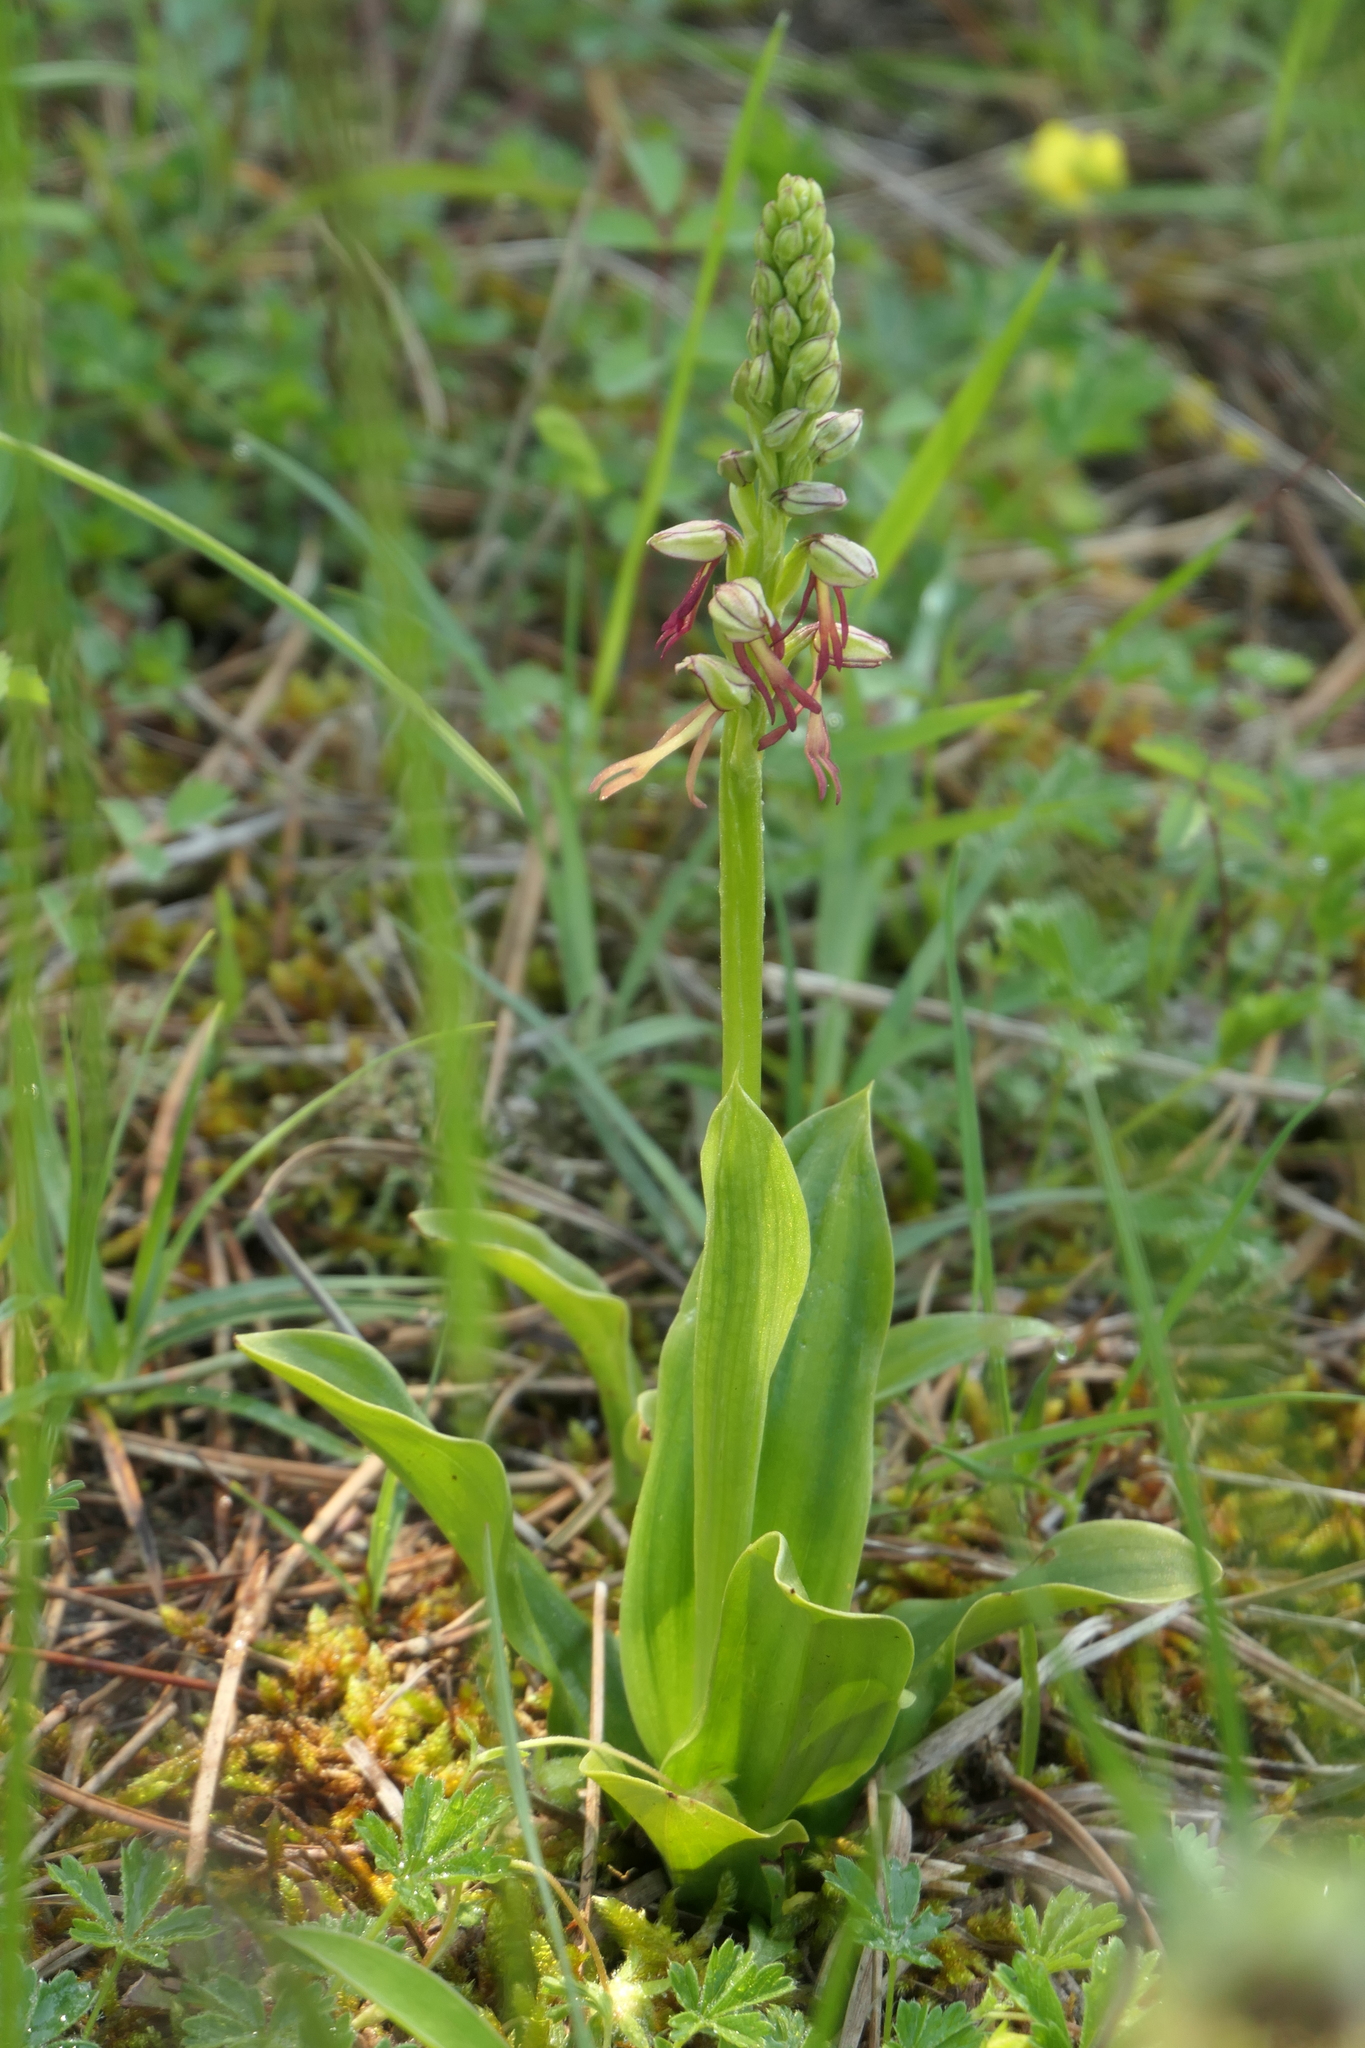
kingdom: Plantae
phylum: Tracheophyta
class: Liliopsida
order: Asparagales
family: Orchidaceae
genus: Orchis
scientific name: Orchis anthropophora
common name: Man orchid
